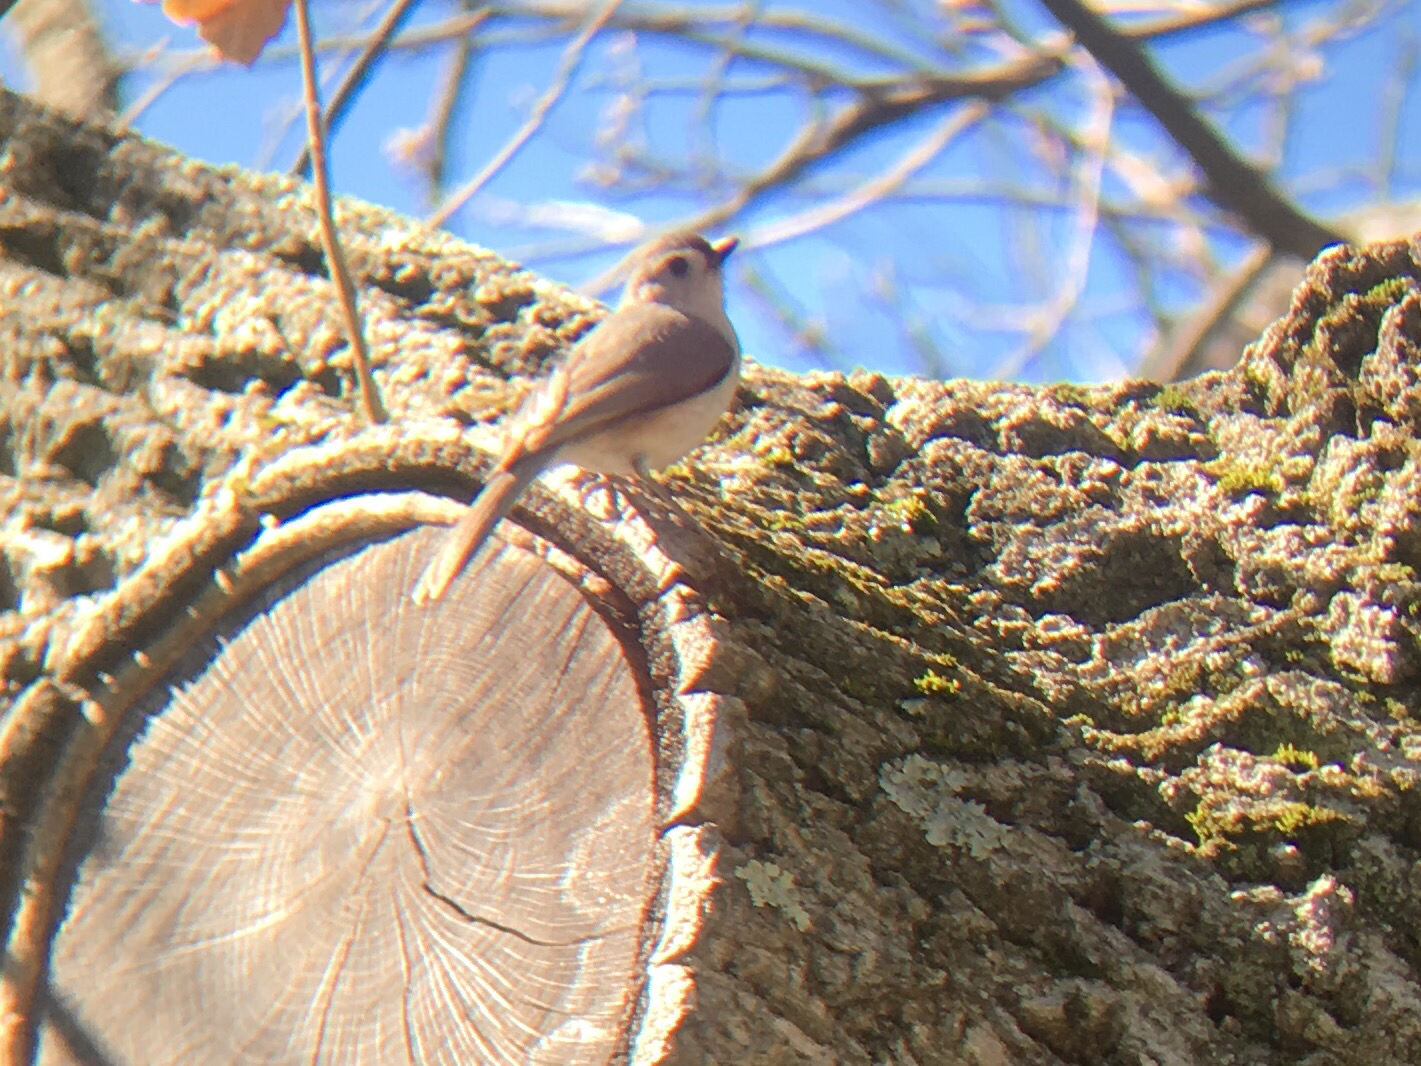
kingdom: Animalia
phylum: Chordata
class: Aves
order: Passeriformes
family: Paridae
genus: Baeolophus
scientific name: Baeolophus bicolor
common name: Tufted titmouse
